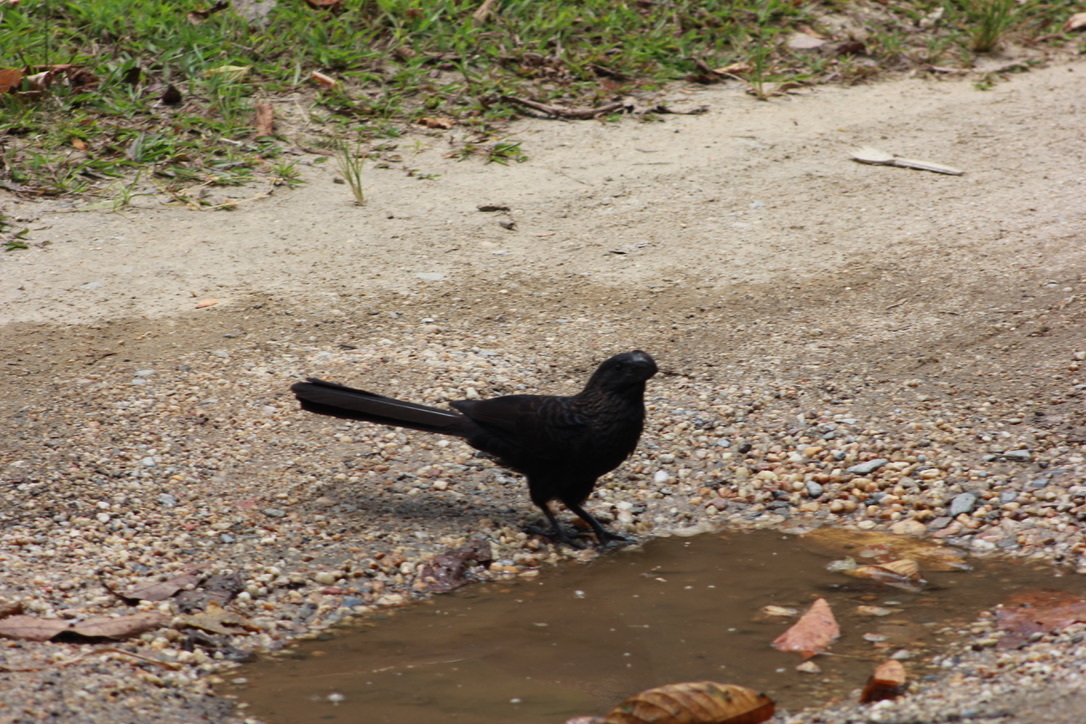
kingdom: Animalia
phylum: Chordata
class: Aves
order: Cuculiformes
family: Cuculidae
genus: Crotophaga
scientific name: Crotophaga ani
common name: Smooth-billed ani
